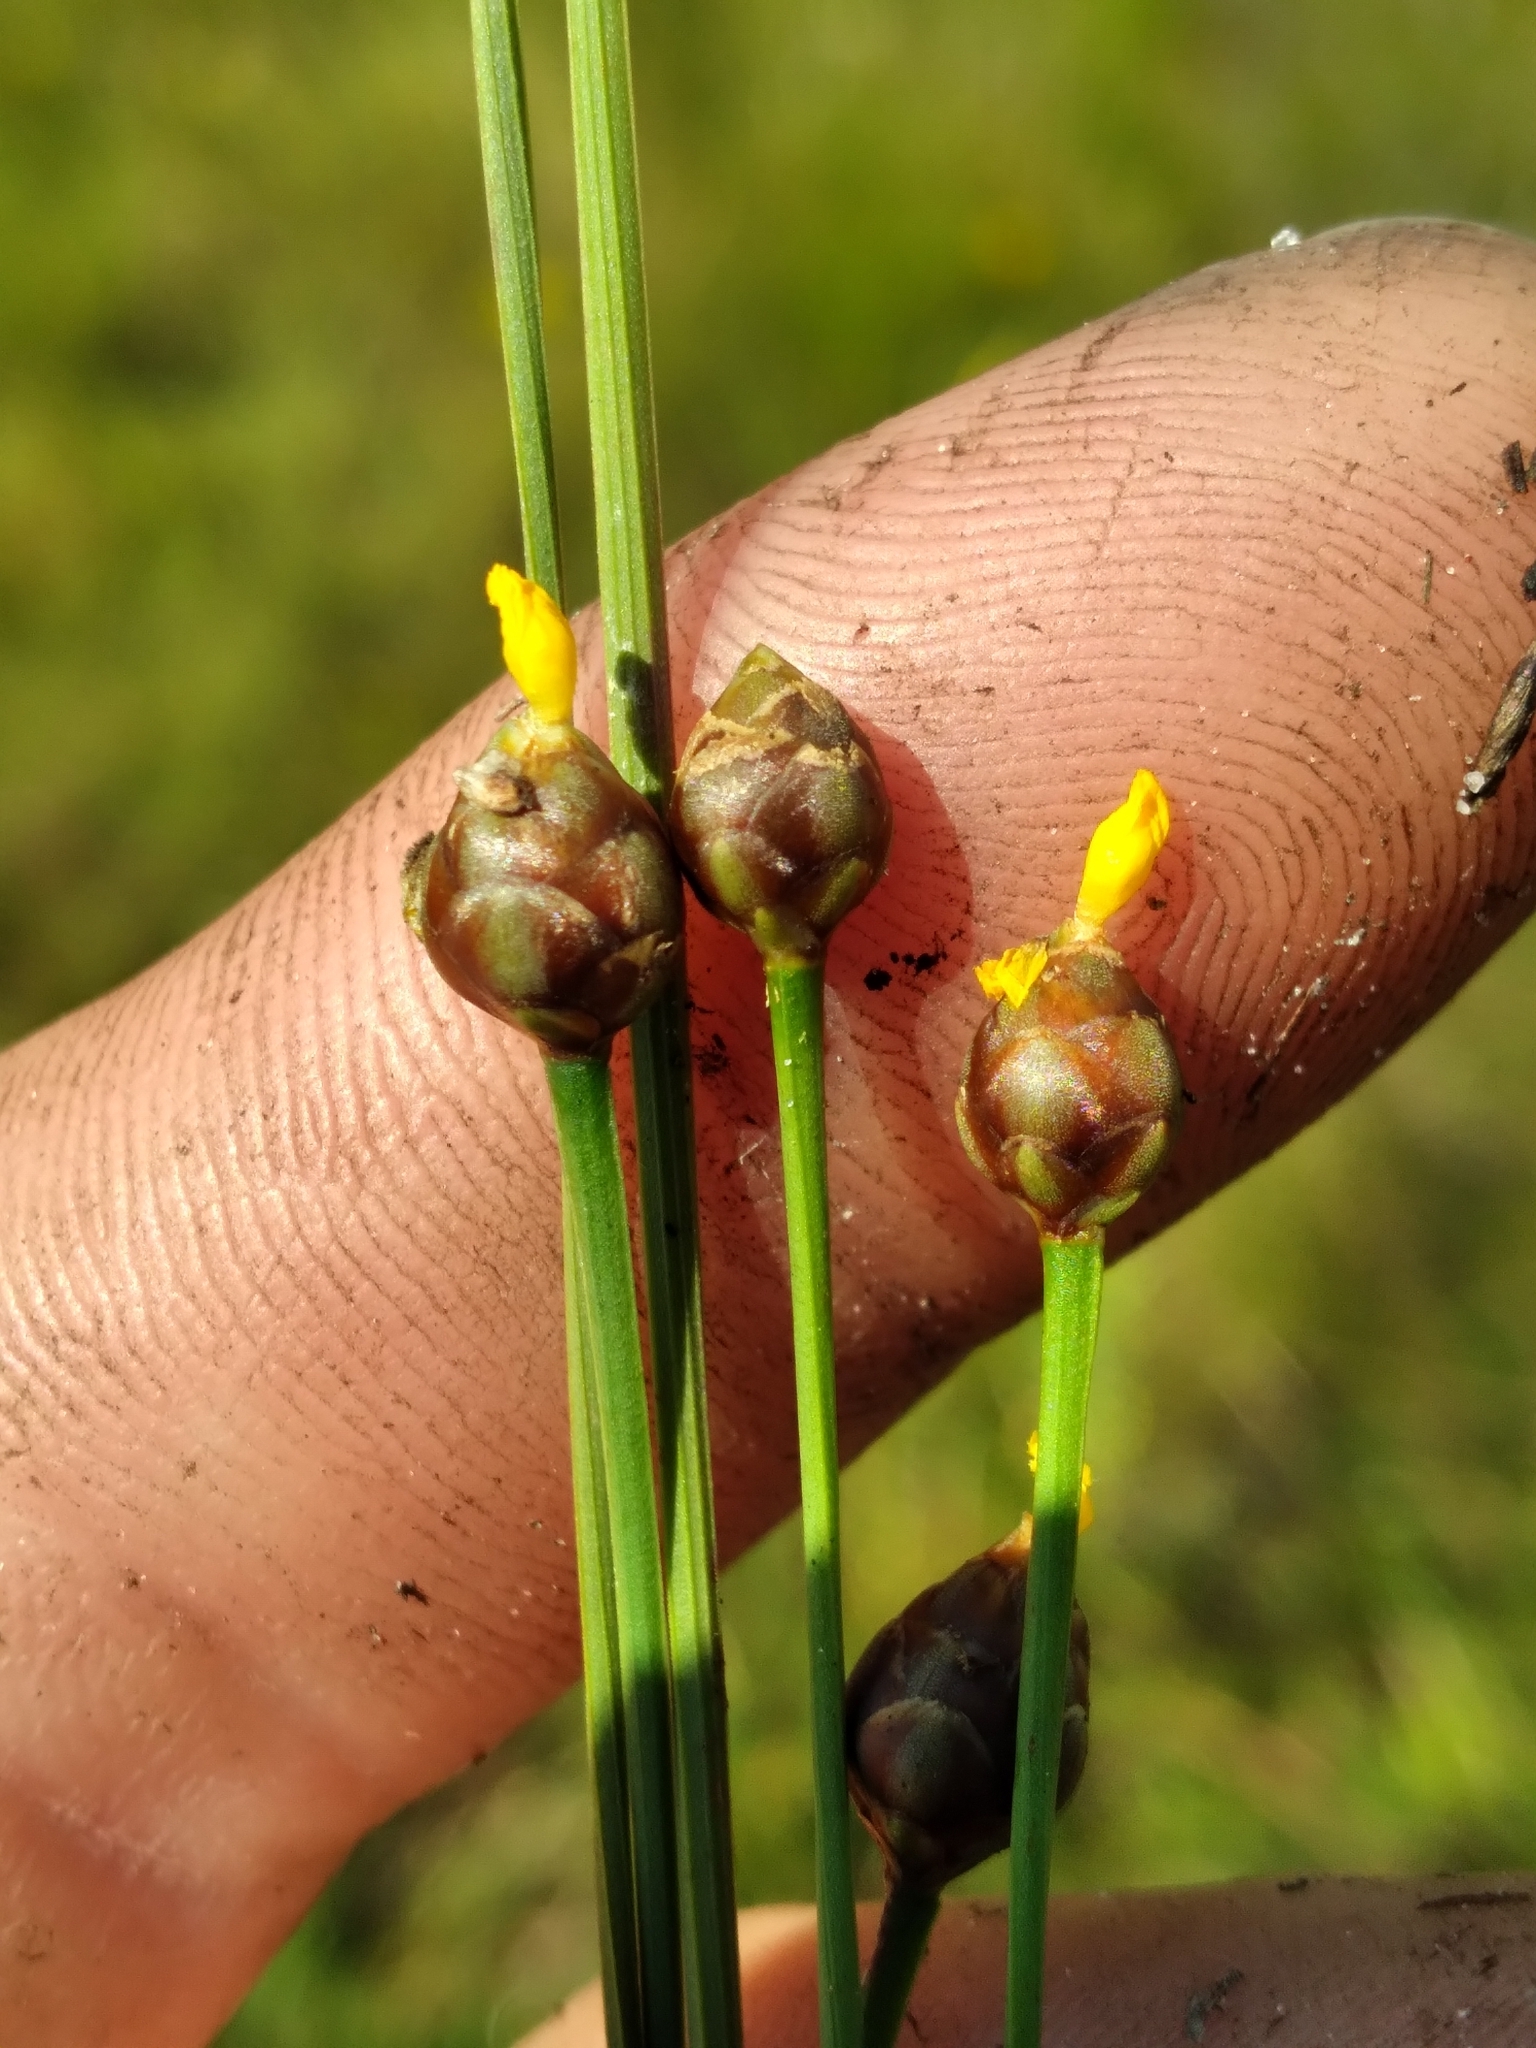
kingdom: Plantae
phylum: Tracheophyta
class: Liliopsida
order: Poales
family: Xyridaceae
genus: Xyris
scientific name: Xyris floridana
